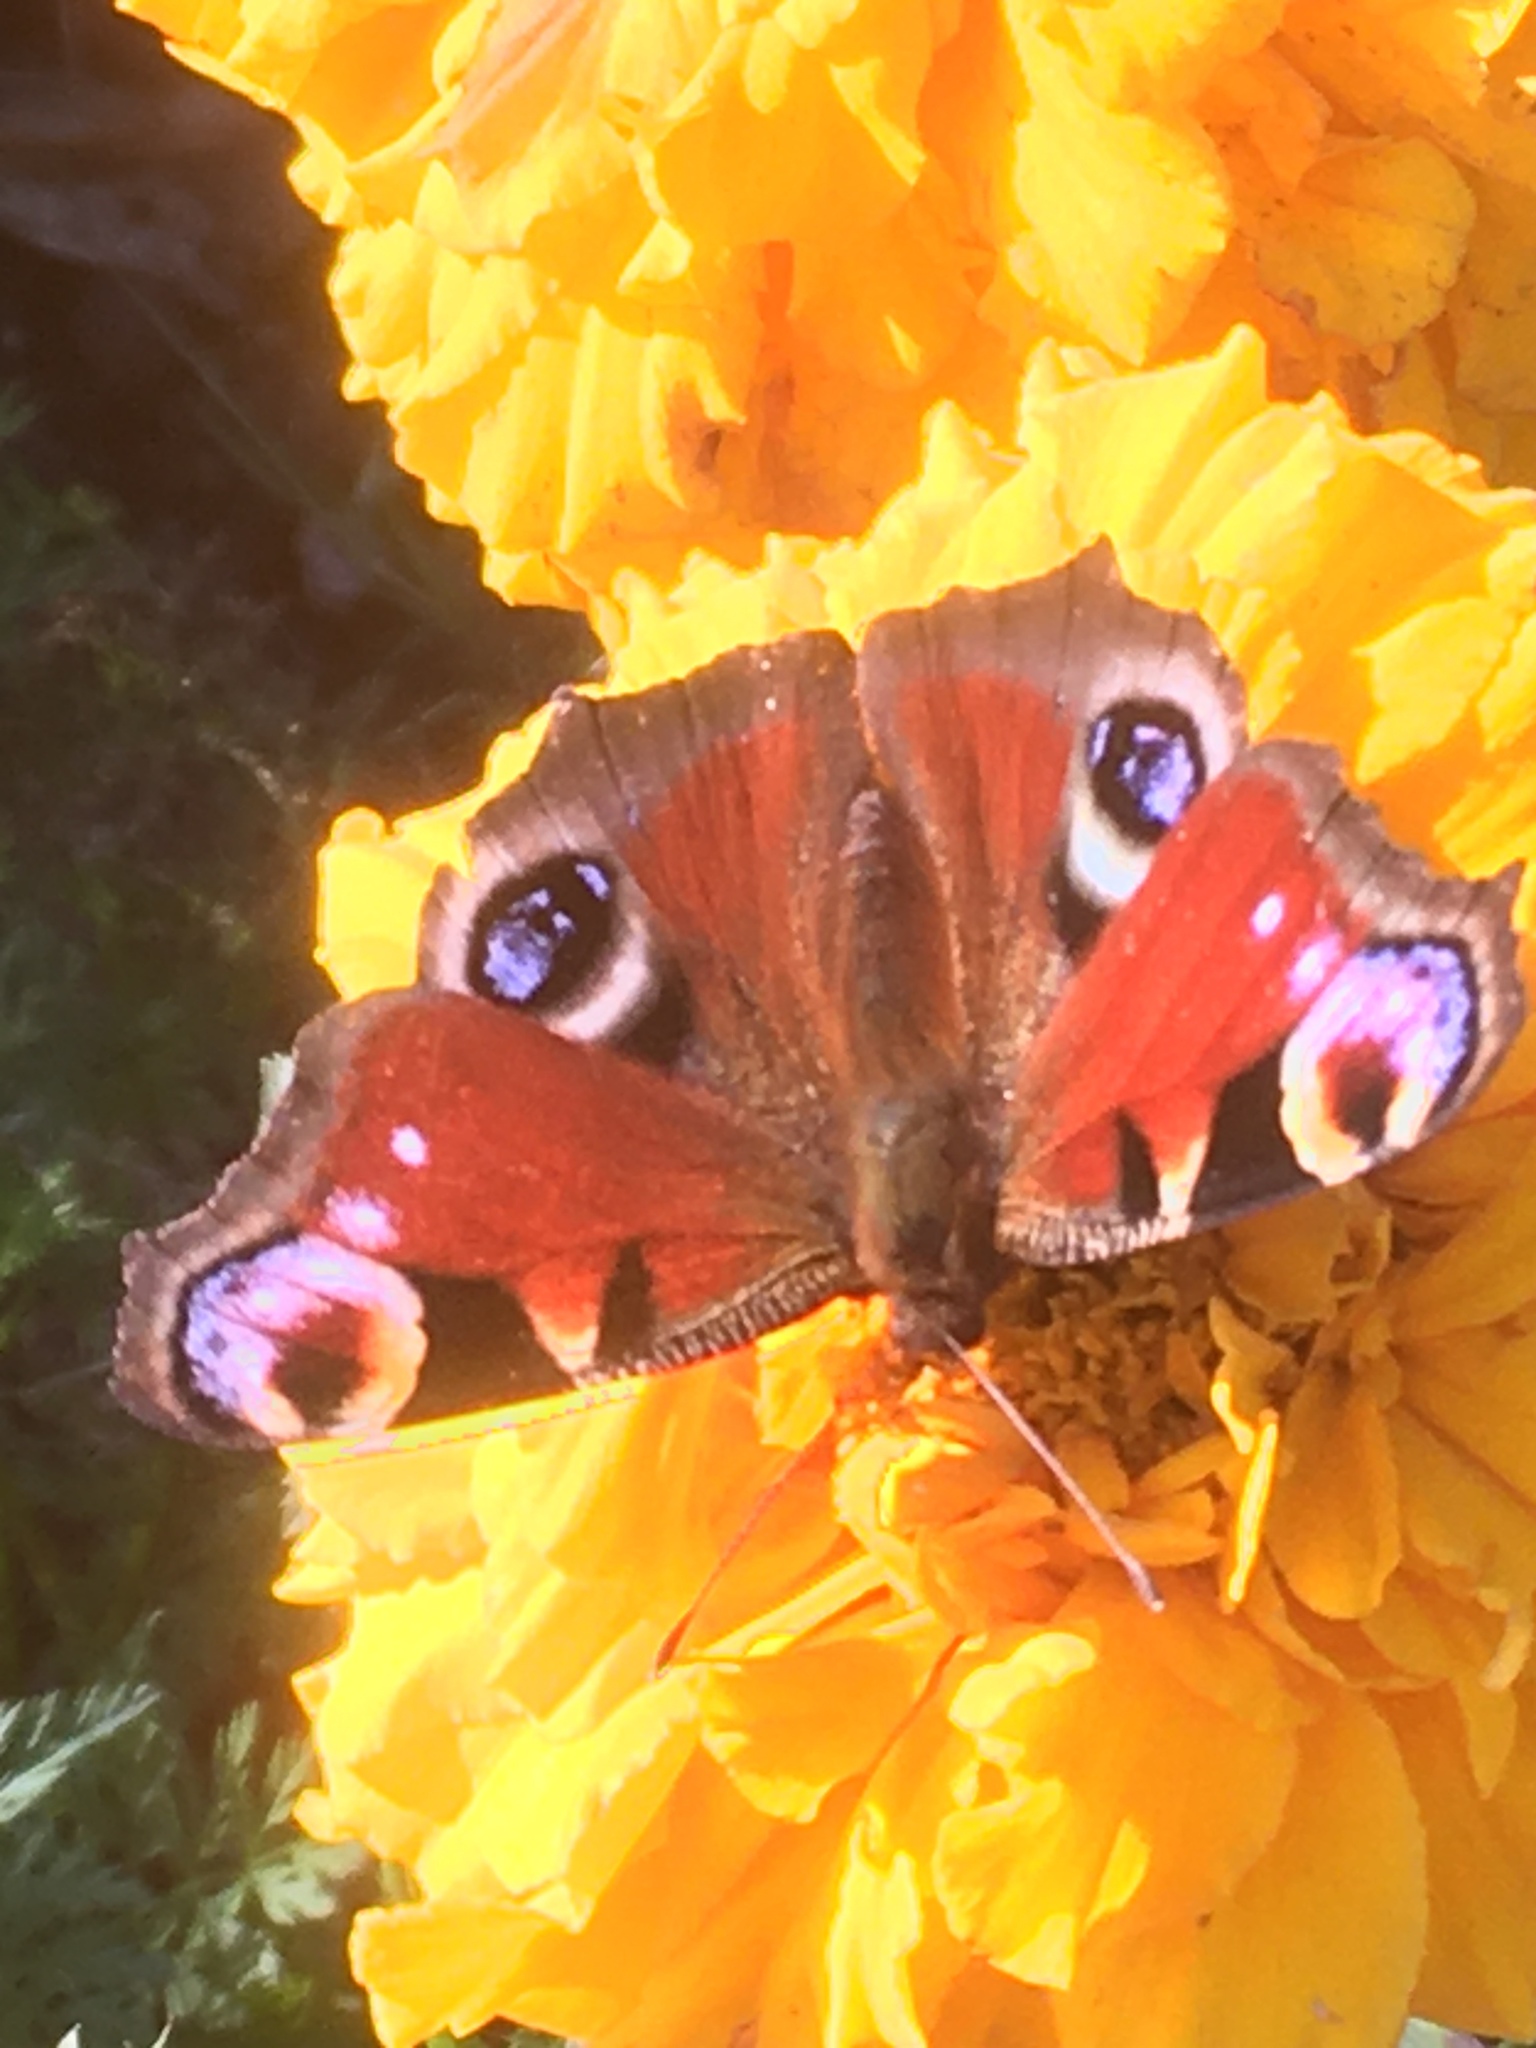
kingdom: Animalia
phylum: Arthropoda
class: Insecta
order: Lepidoptera
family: Nymphalidae
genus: Aglais
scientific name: Aglais io
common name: Peacock
